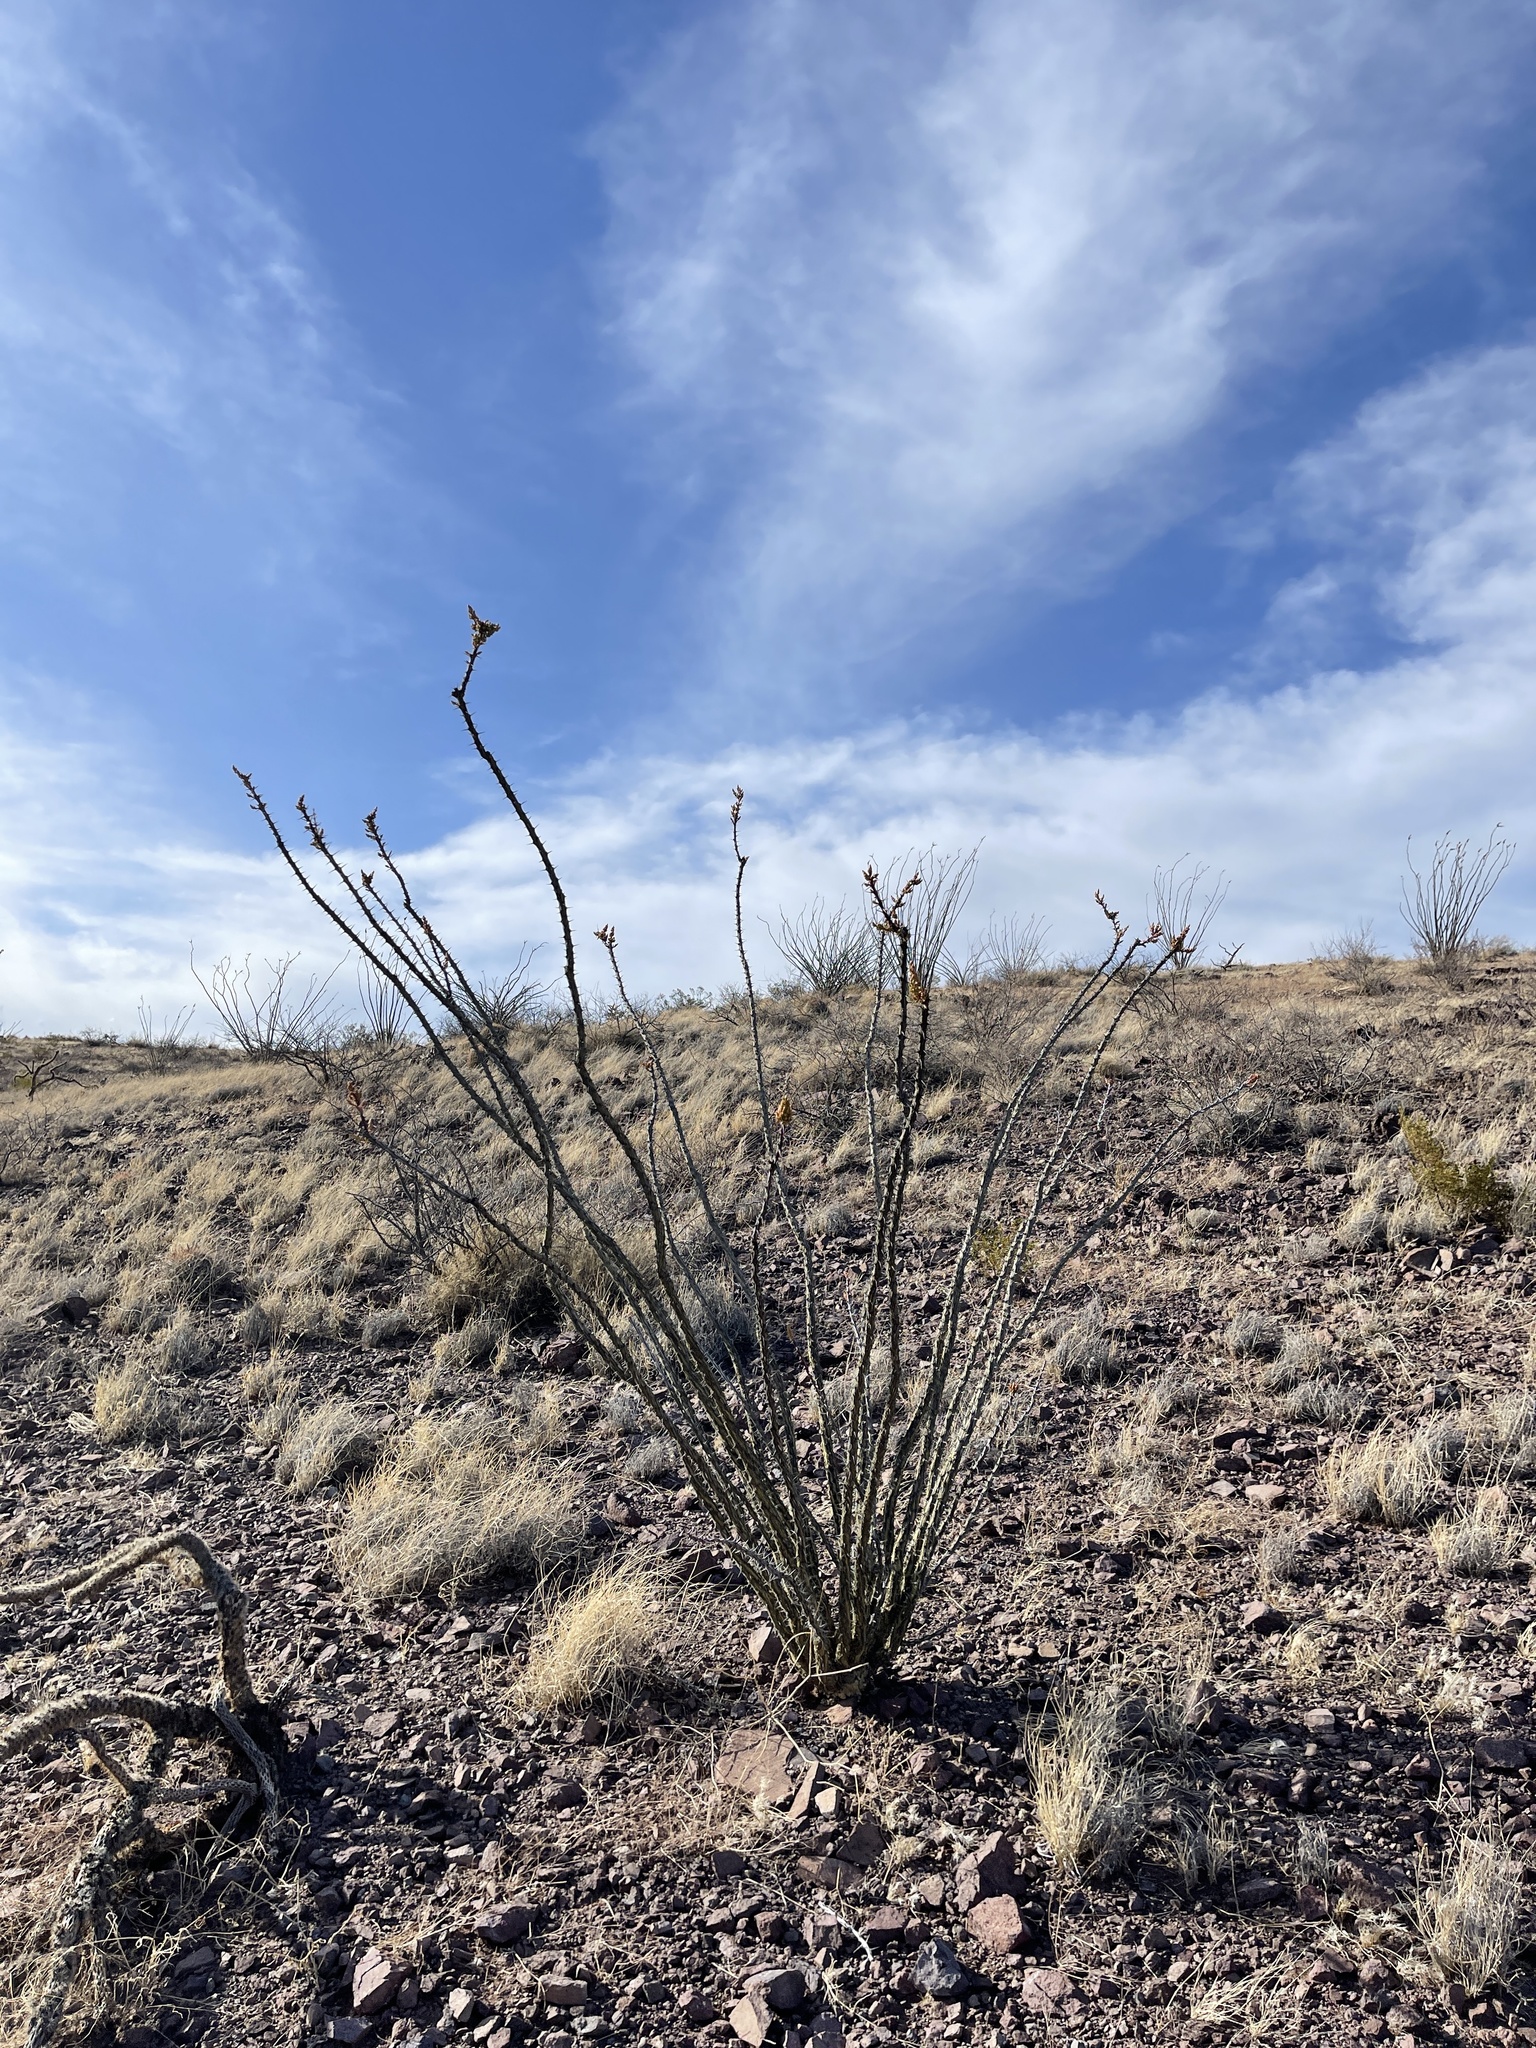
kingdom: Plantae
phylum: Tracheophyta
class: Magnoliopsida
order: Ericales
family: Fouquieriaceae
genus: Fouquieria
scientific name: Fouquieria splendens
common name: Vine-cactus
